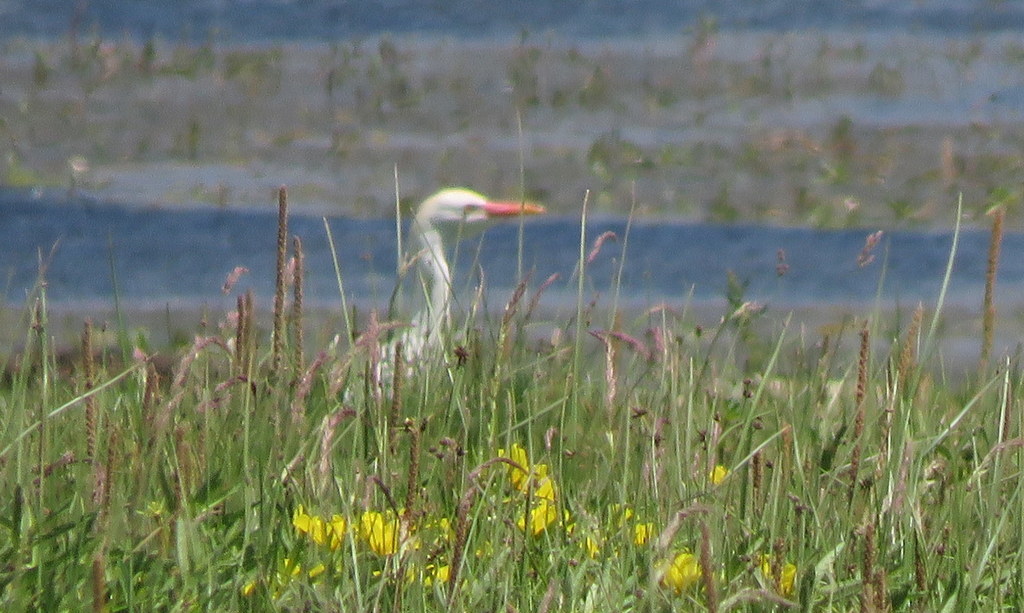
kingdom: Animalia
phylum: Chordata
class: Aves
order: Pelecaniformes
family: Ardeidae
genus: Bubulcus
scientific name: Bubulcus ibis
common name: Cattle egret
